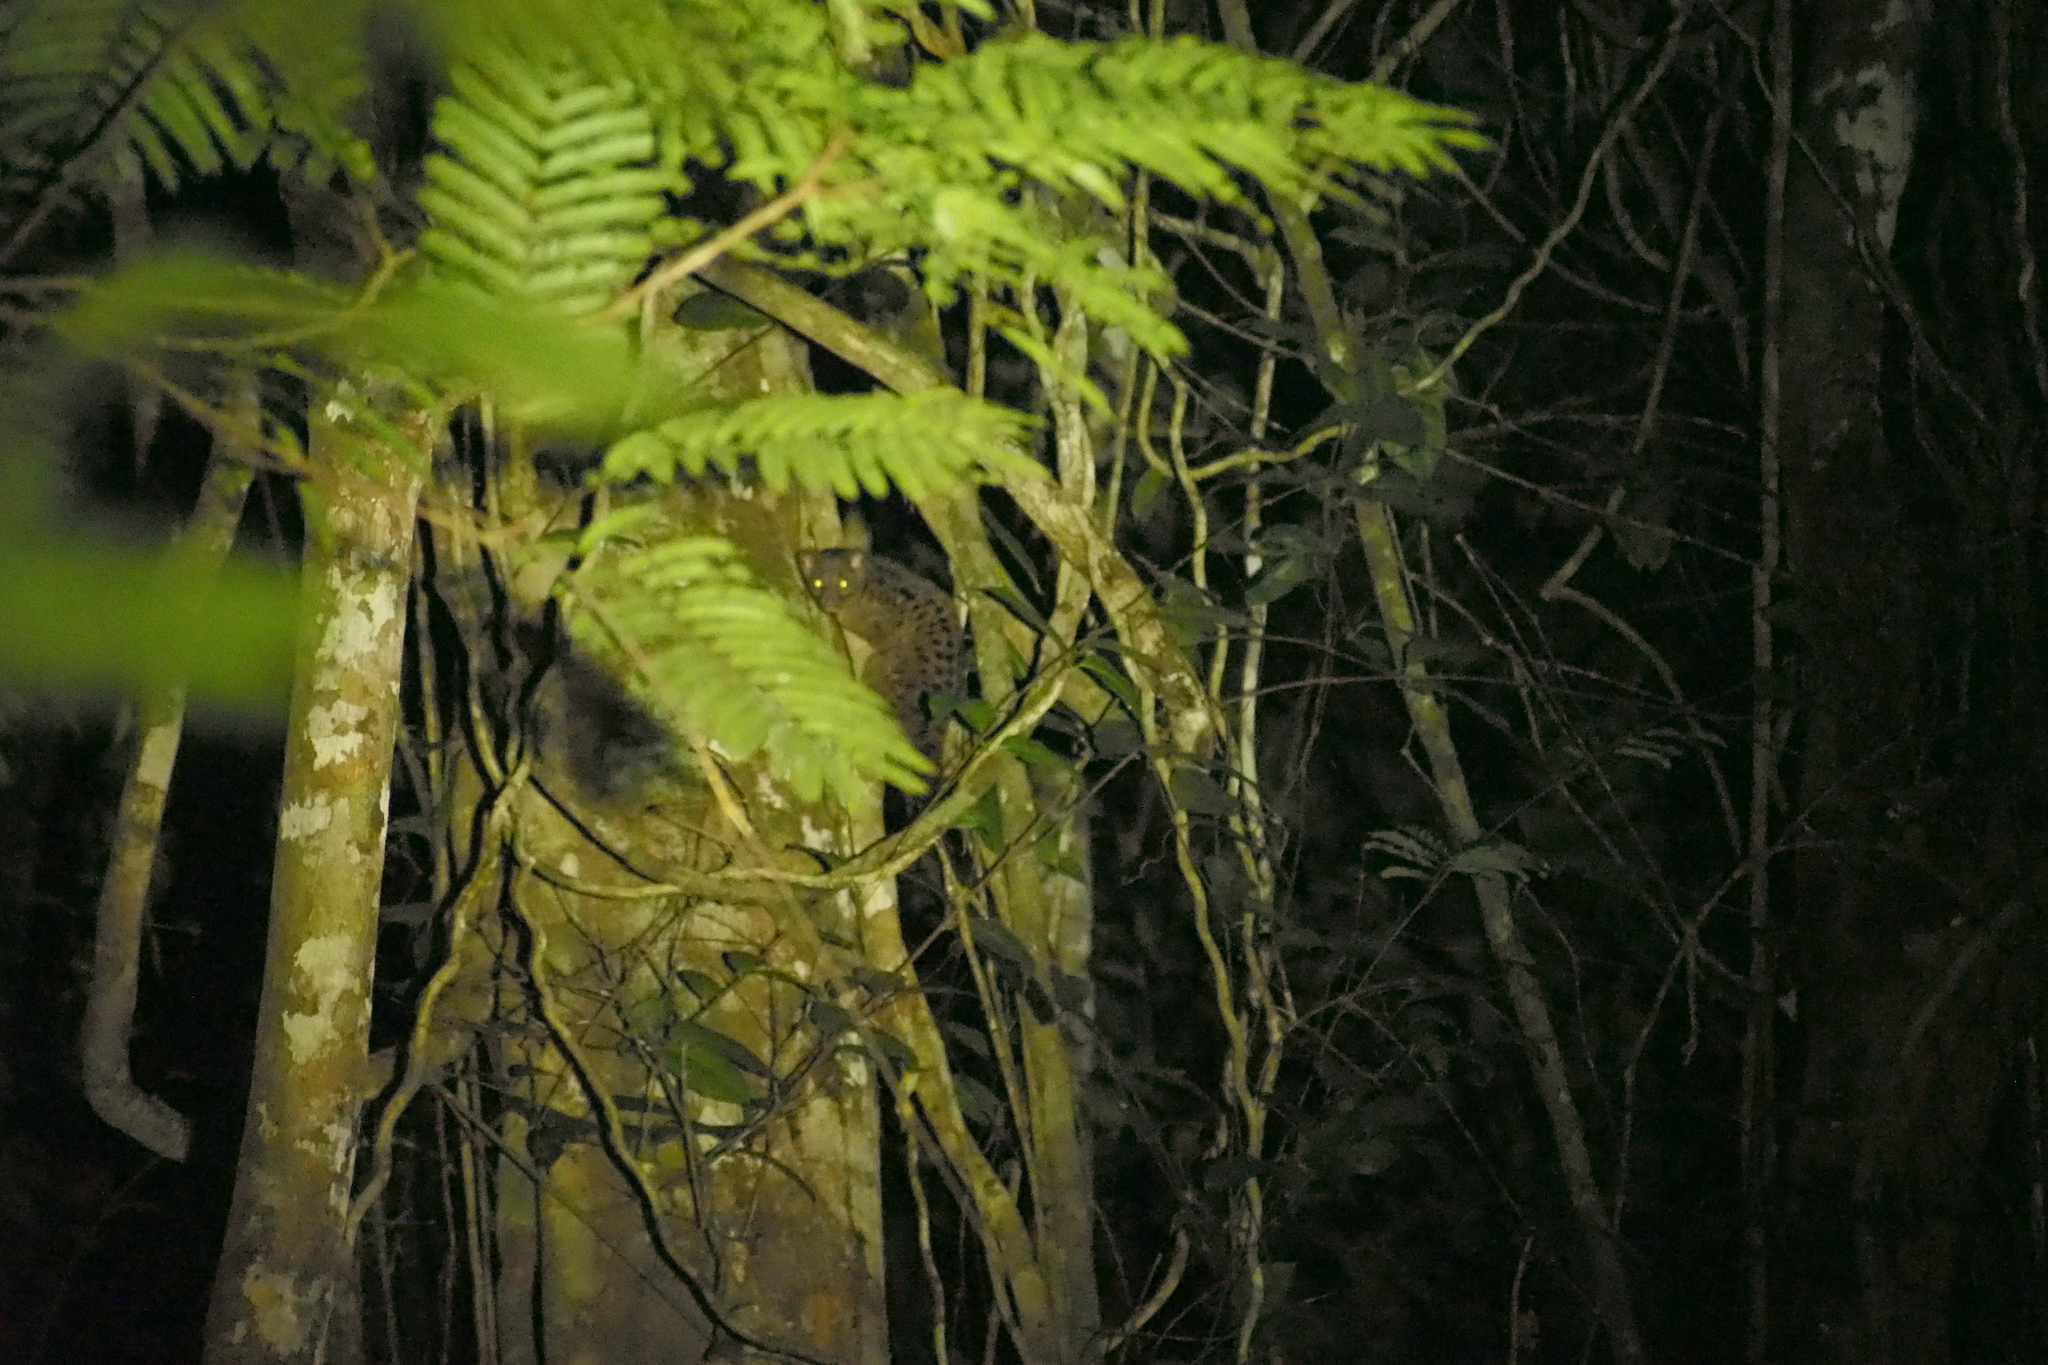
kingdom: Animalia
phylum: Chordata
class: Mammalia
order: Carnivora
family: Nandiniidae
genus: Nandinia
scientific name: Nandinia binotata
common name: African palm civet
